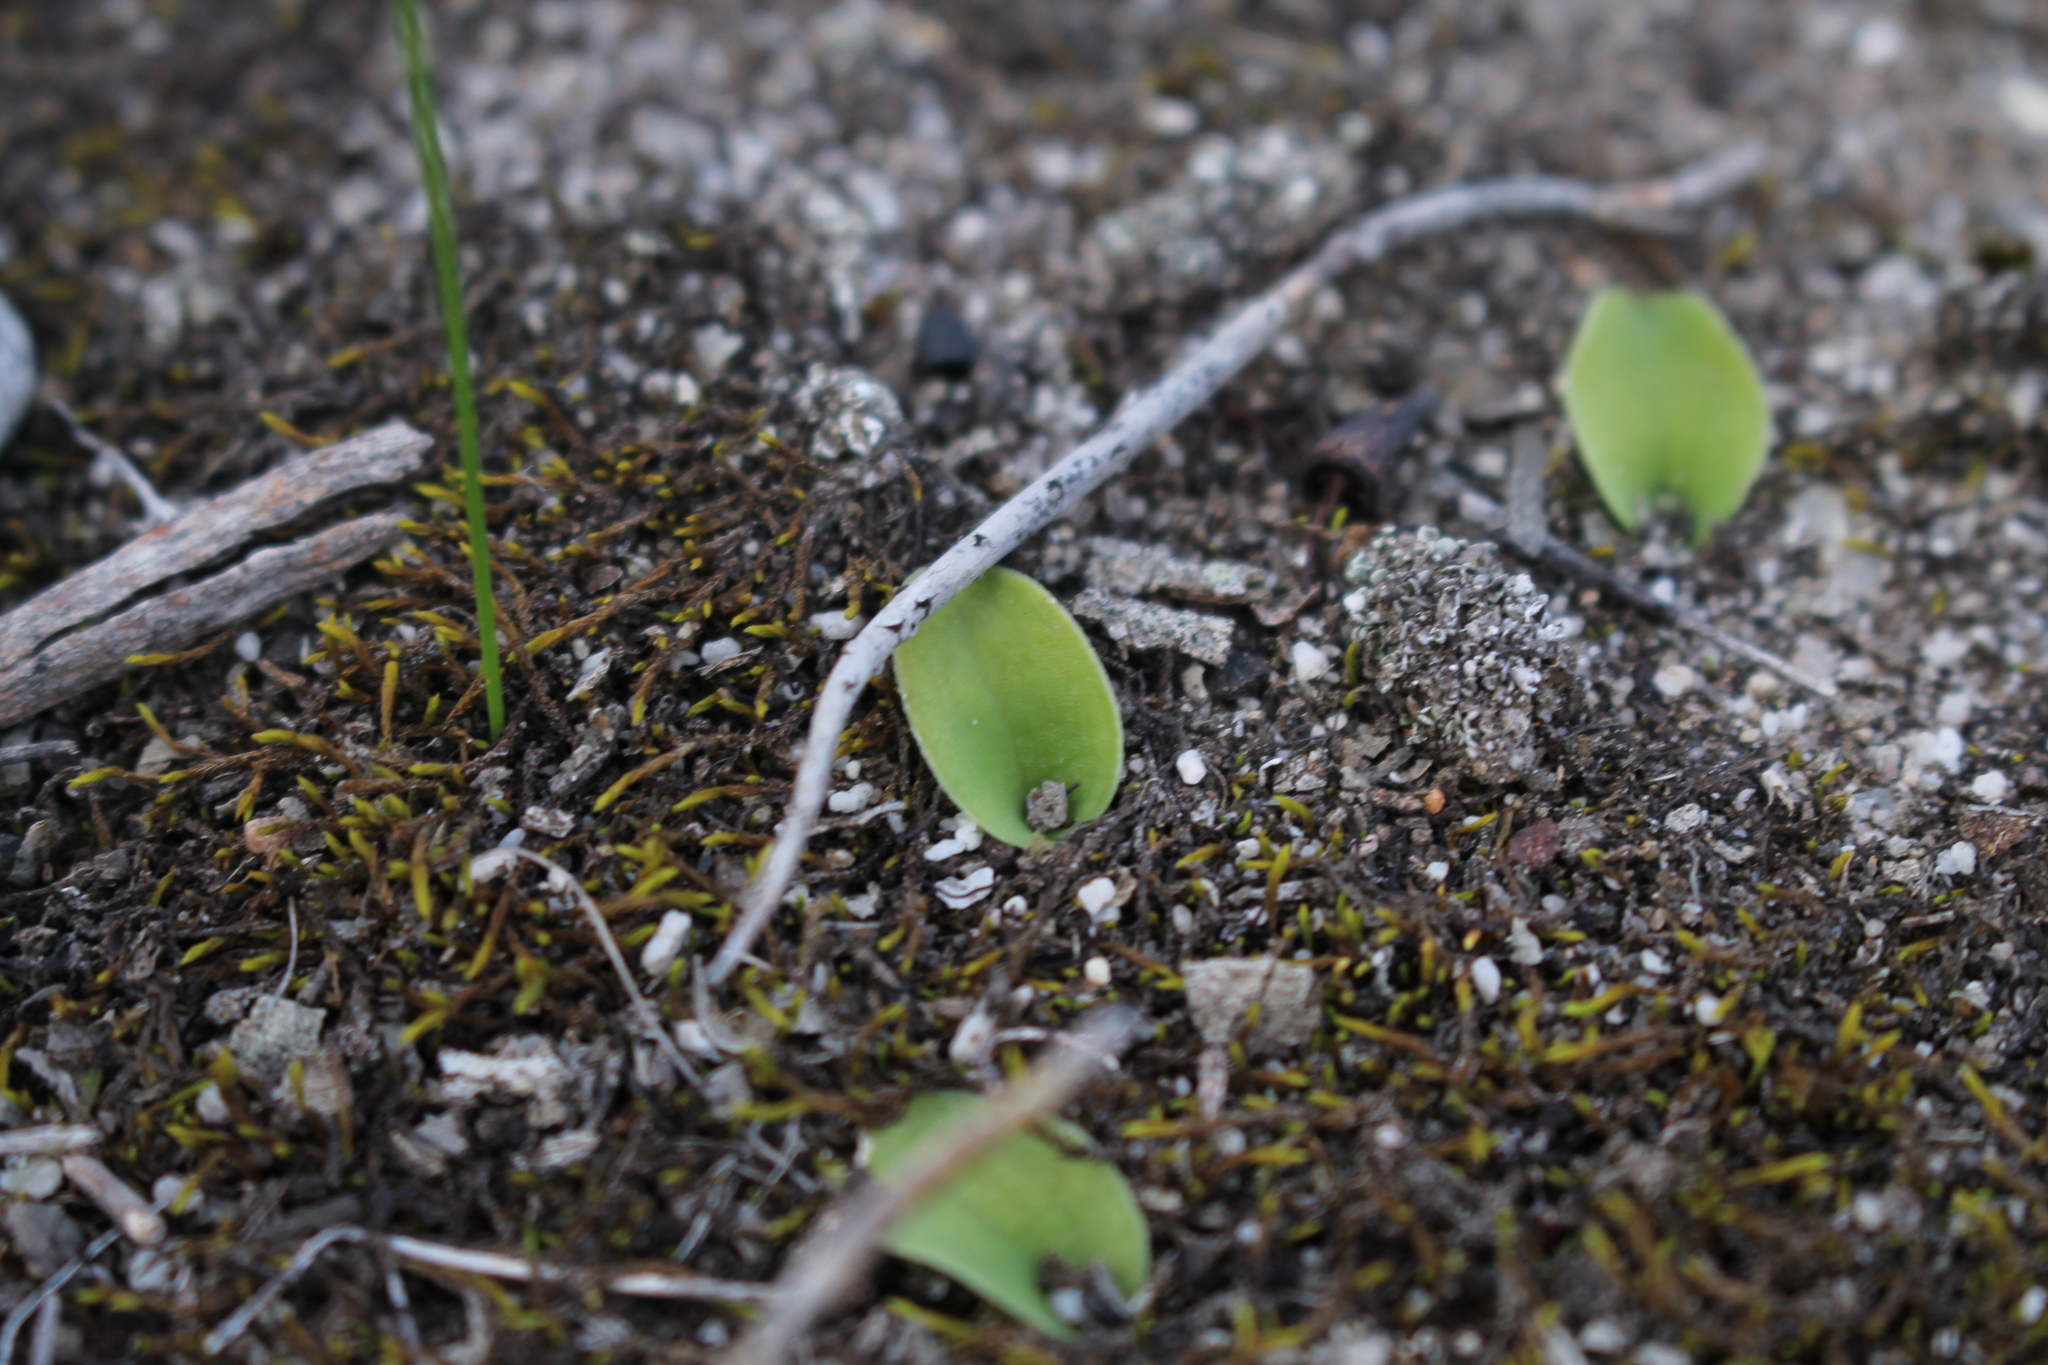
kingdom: Plantae
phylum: Tracheophyta
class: Liliopsida
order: Asparagales
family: Orchidaceae
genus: Leptoceras
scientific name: Leptoceras menziesii
